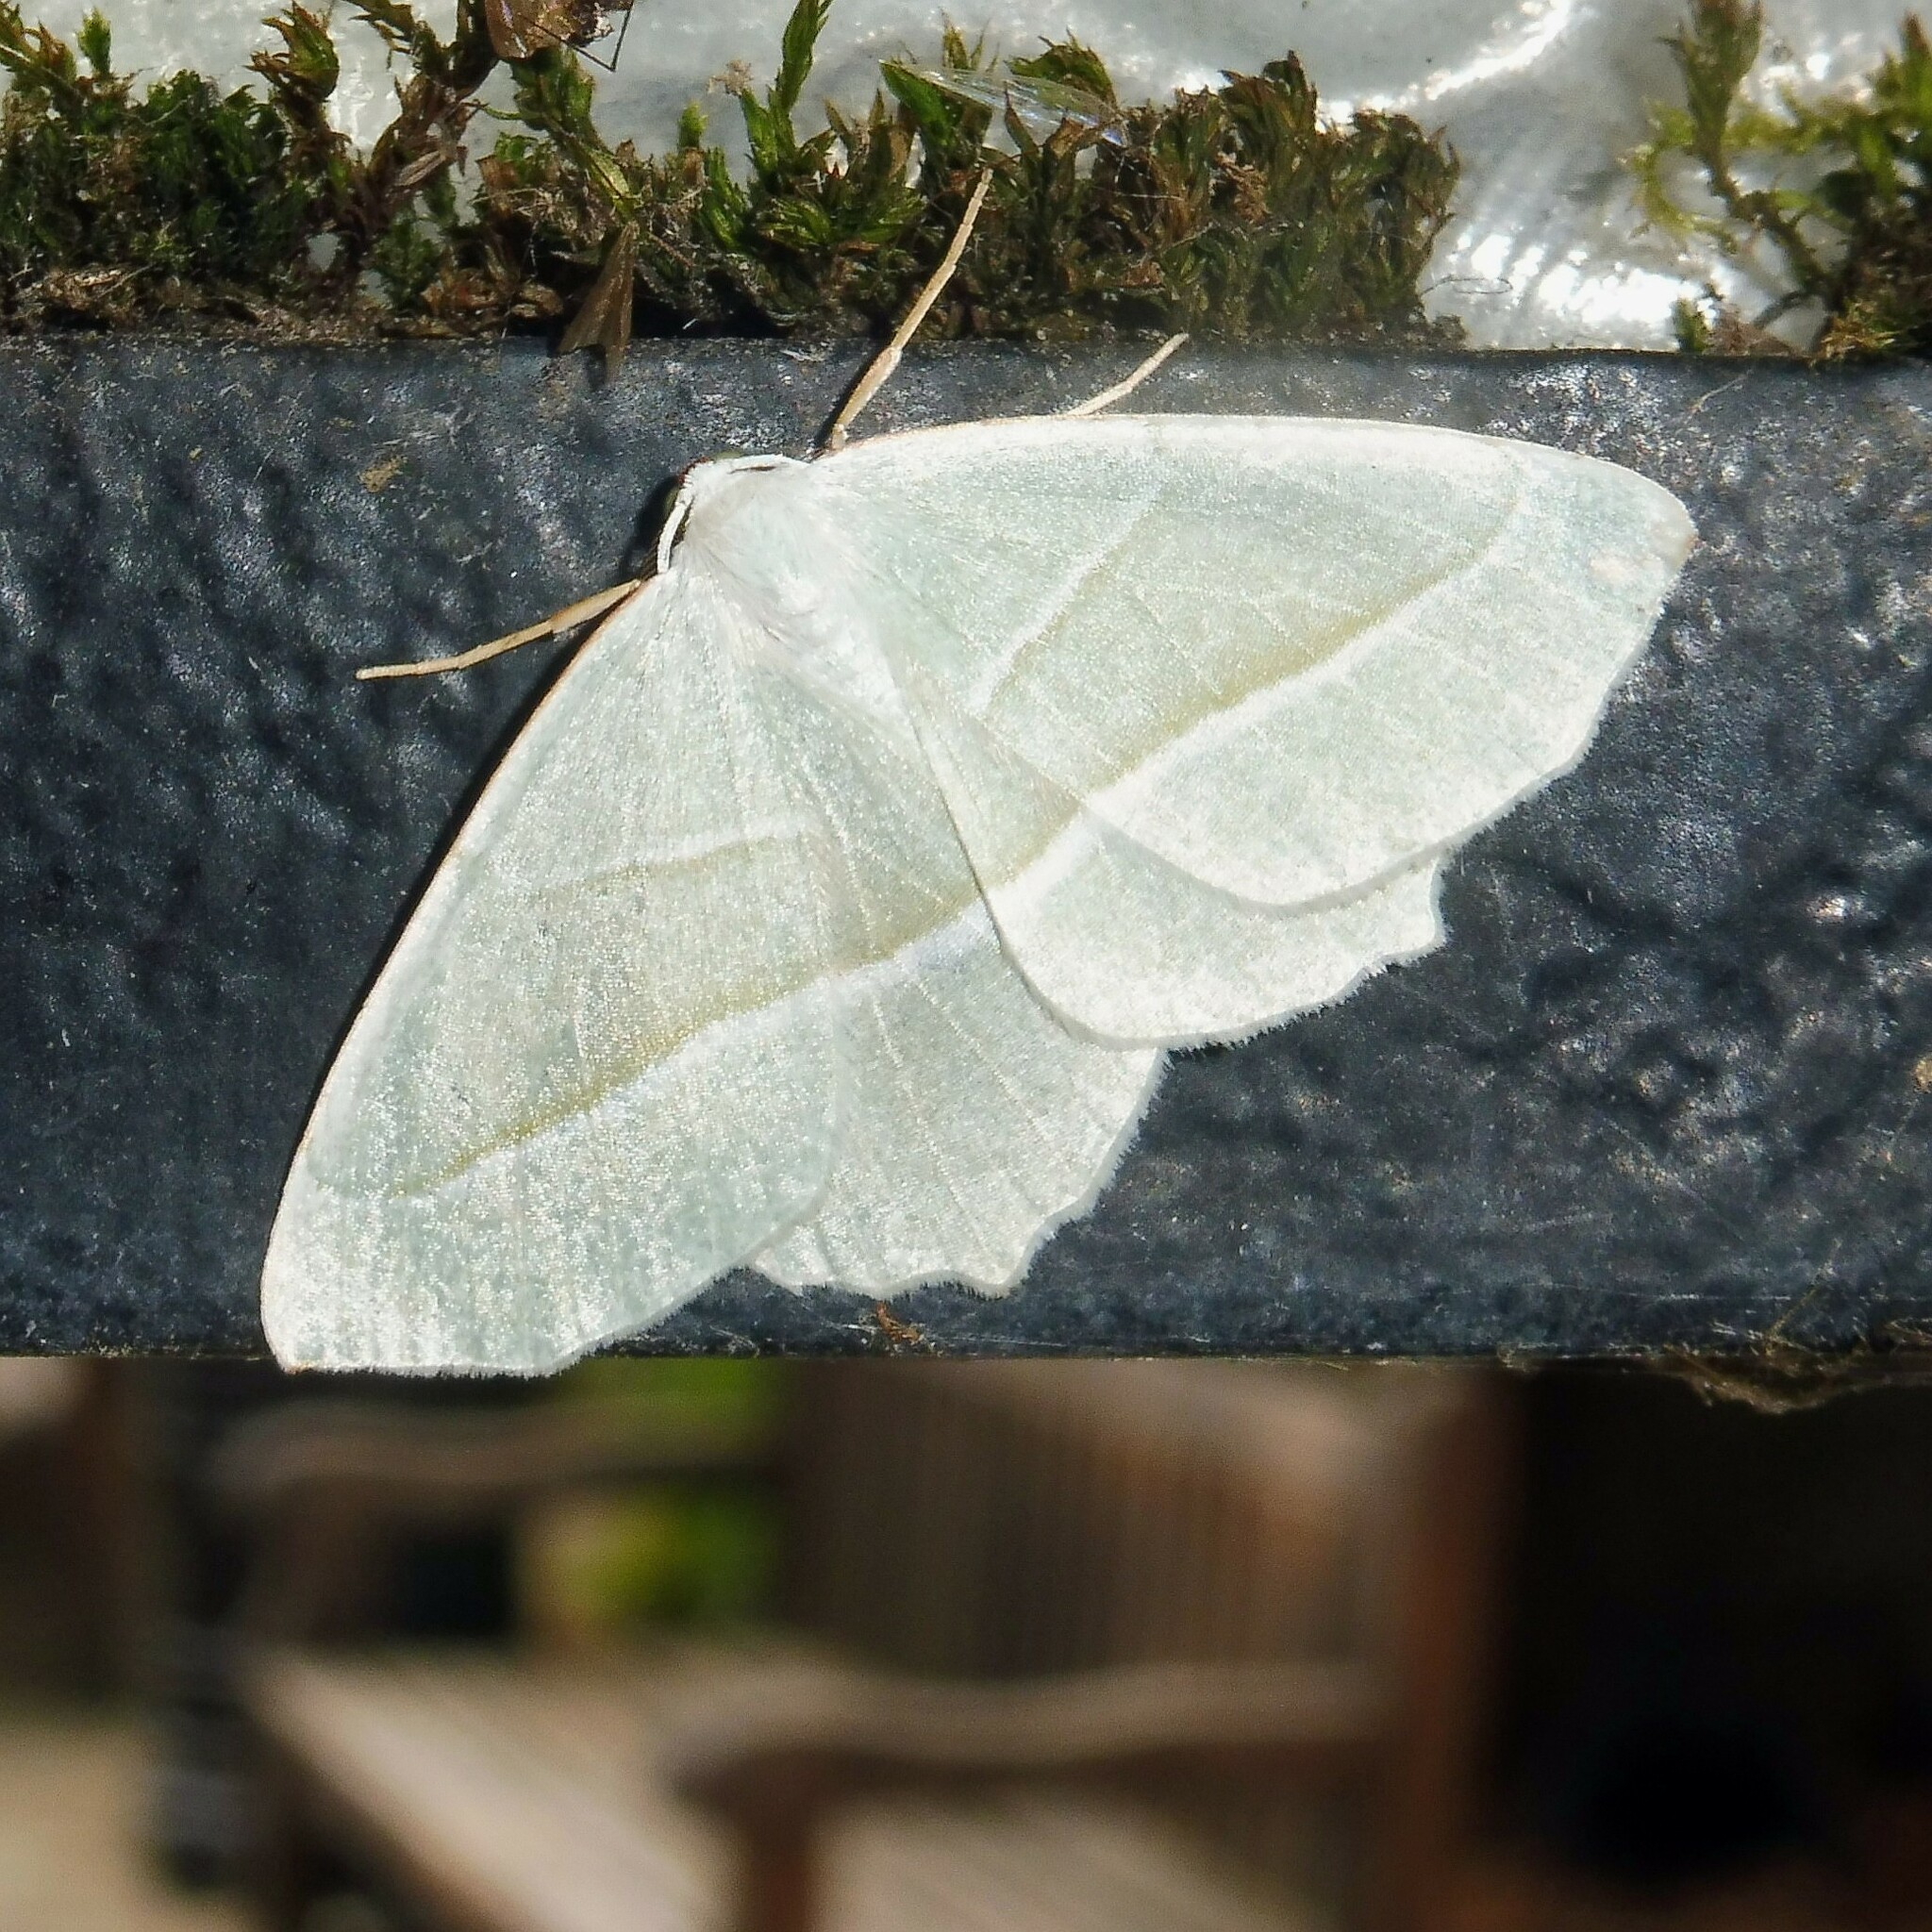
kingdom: Animalia
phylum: Arthropoda
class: Insecta
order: Lepidoptera
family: Geometridae
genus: Campaea
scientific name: Campaea margaritaria
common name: Light emerald
